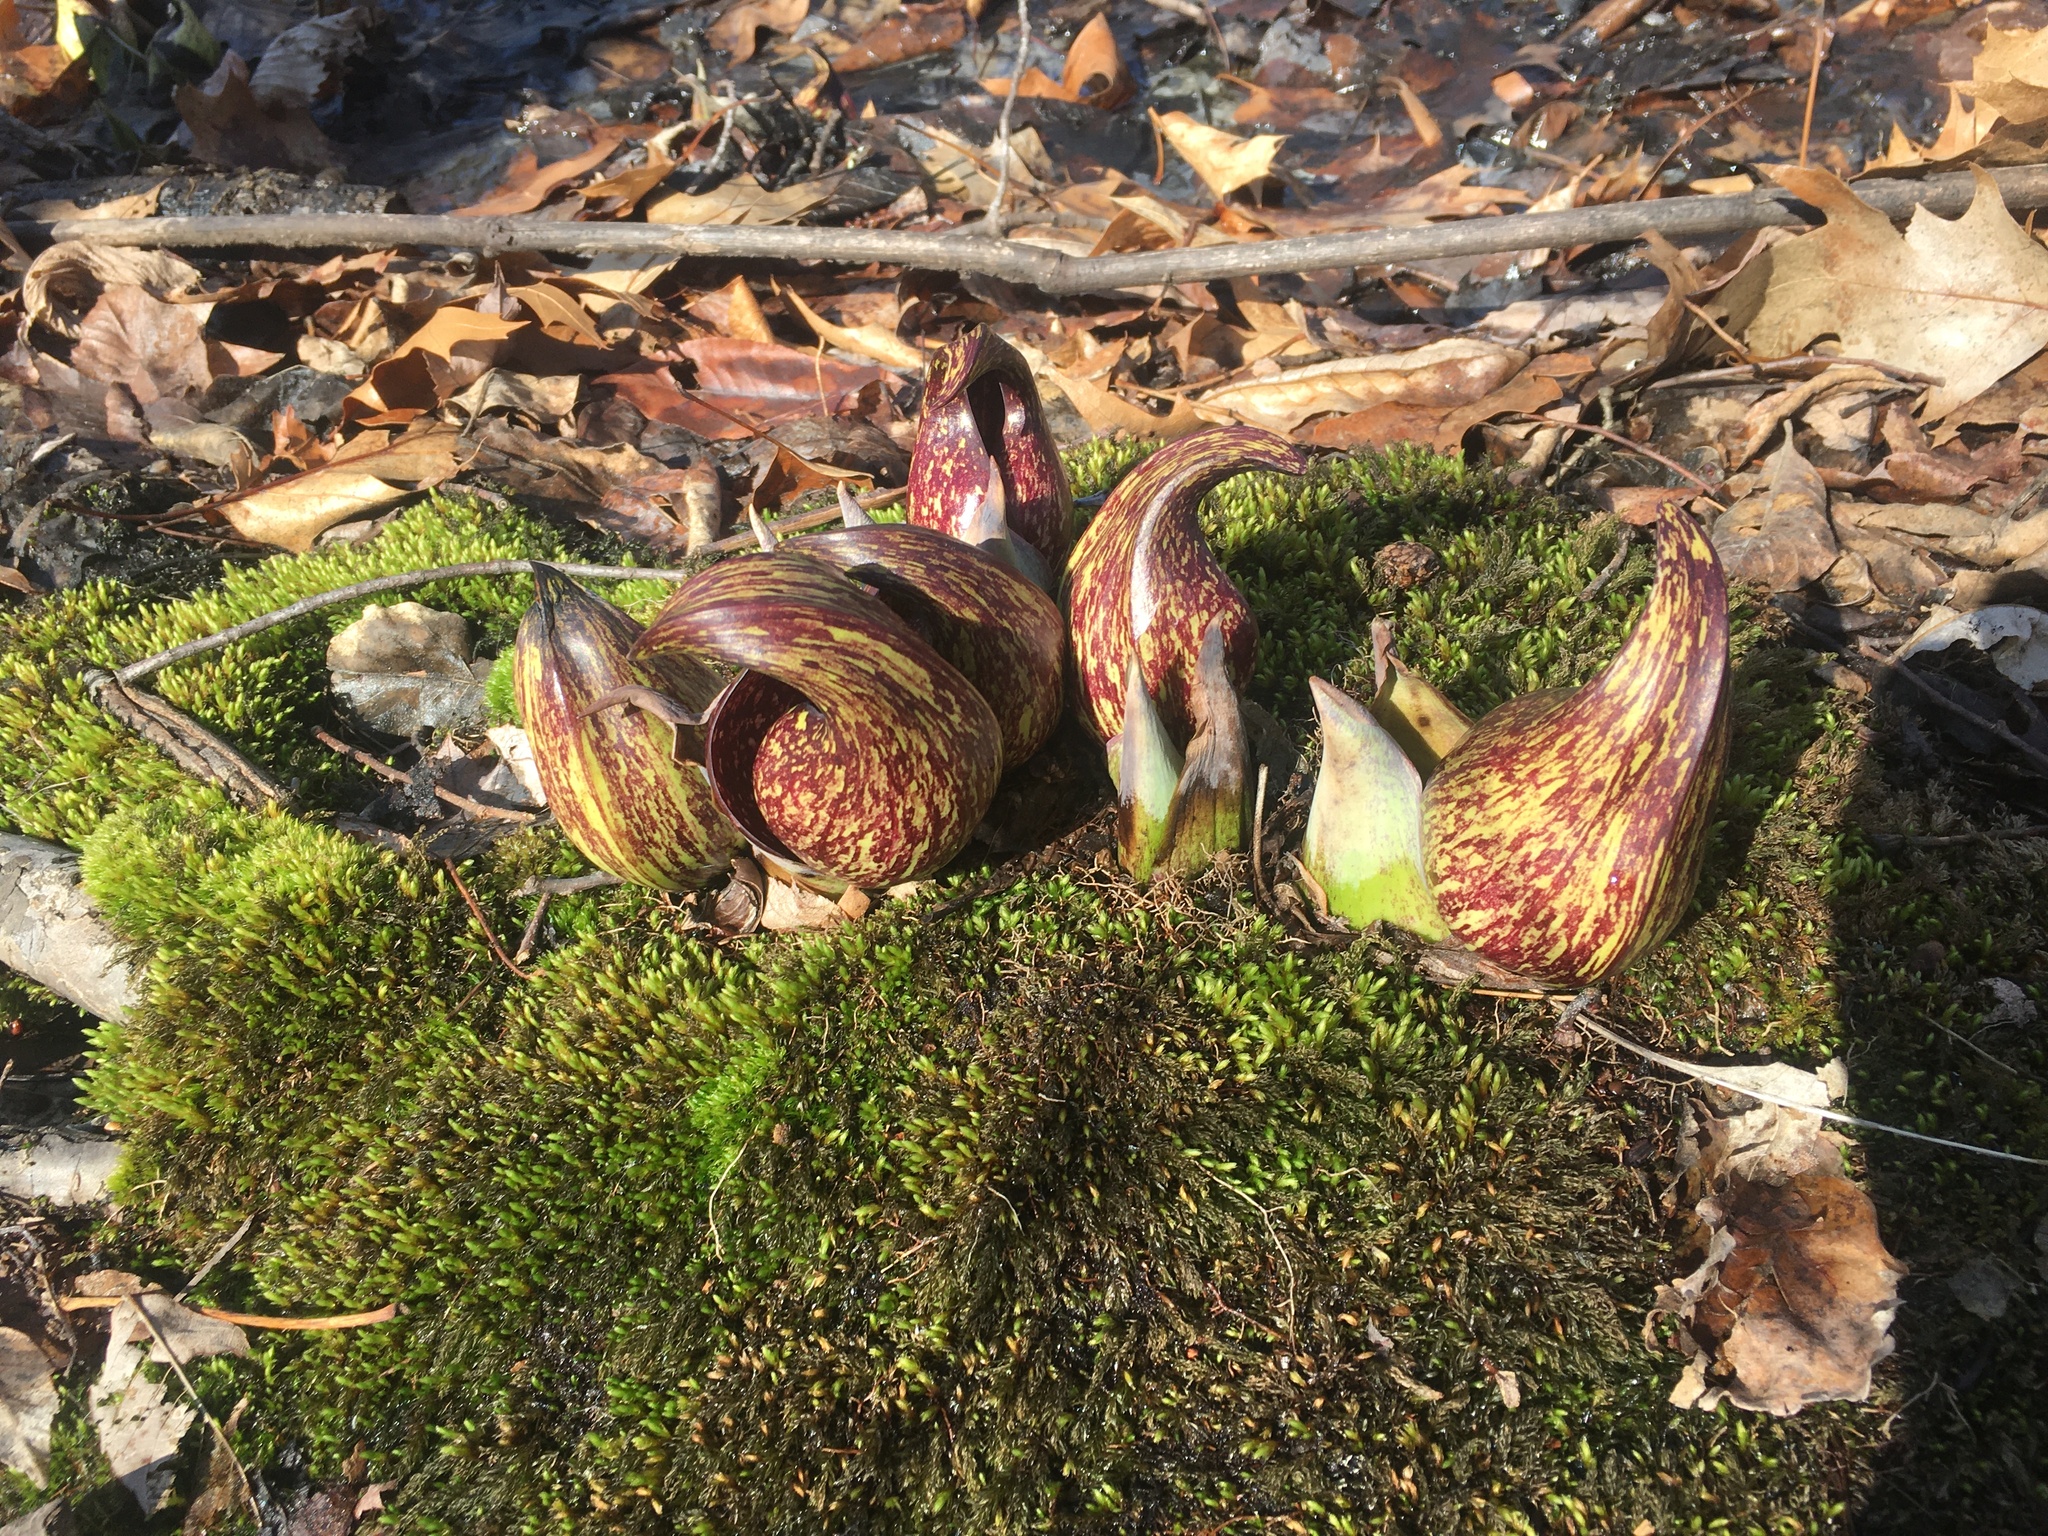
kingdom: Plantae
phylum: Tracheophyta
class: Liliopsida
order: Alismatales
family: Araceae
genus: Symplocarpus
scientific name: Symplocarpus foetidus
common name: Eastern skunk cabbage
